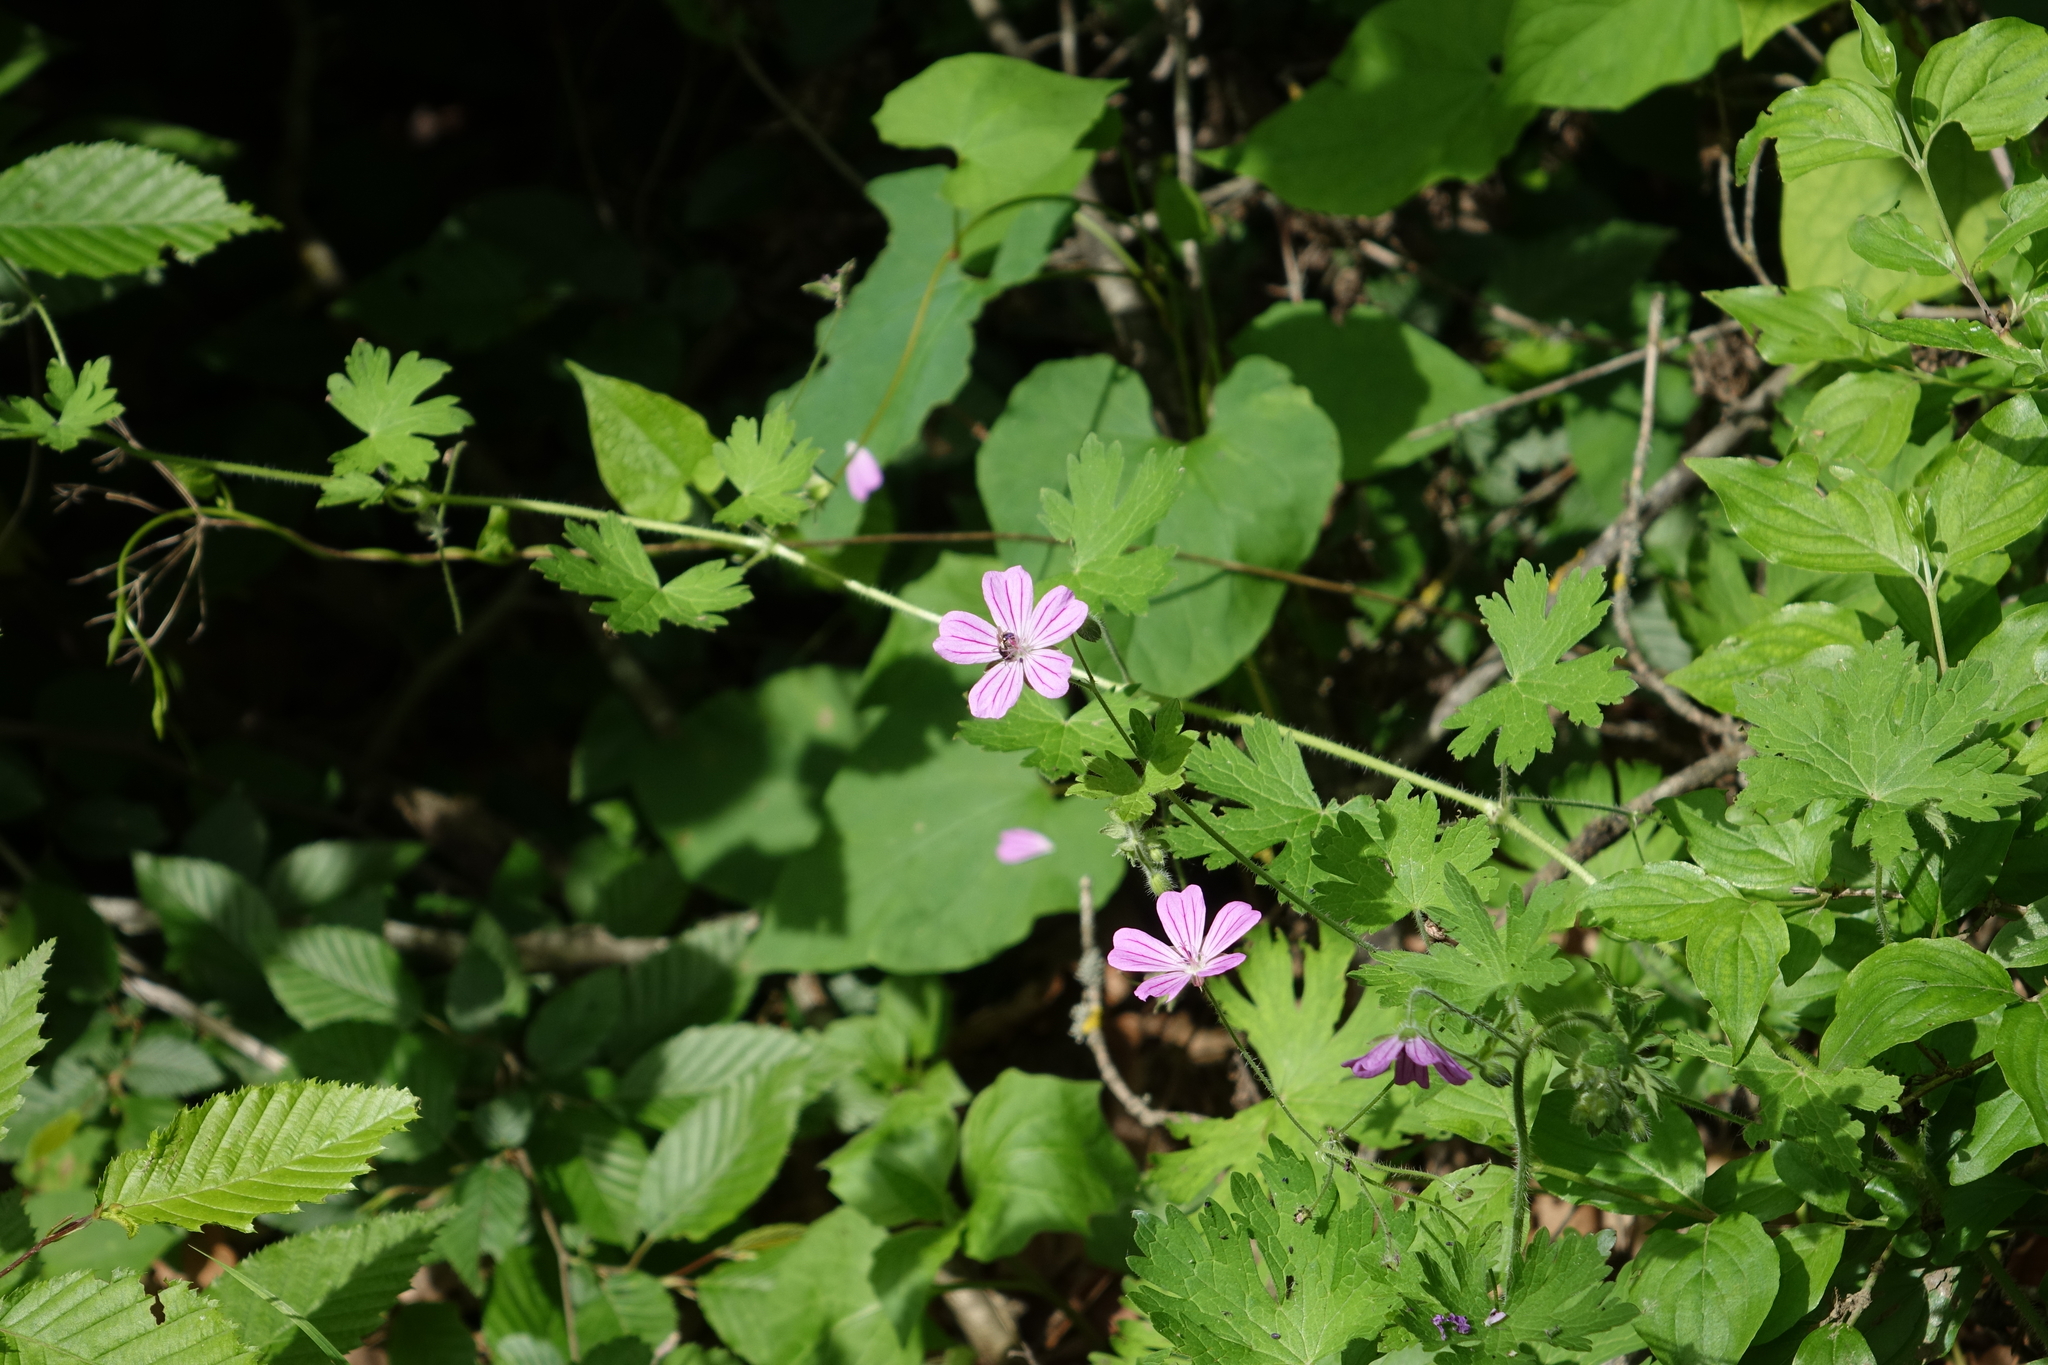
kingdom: Plantae
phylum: Tracheophyta
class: Magnoliopsida
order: Geraniales
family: Geraniaceae
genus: Geranium
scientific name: Geranium albanum
